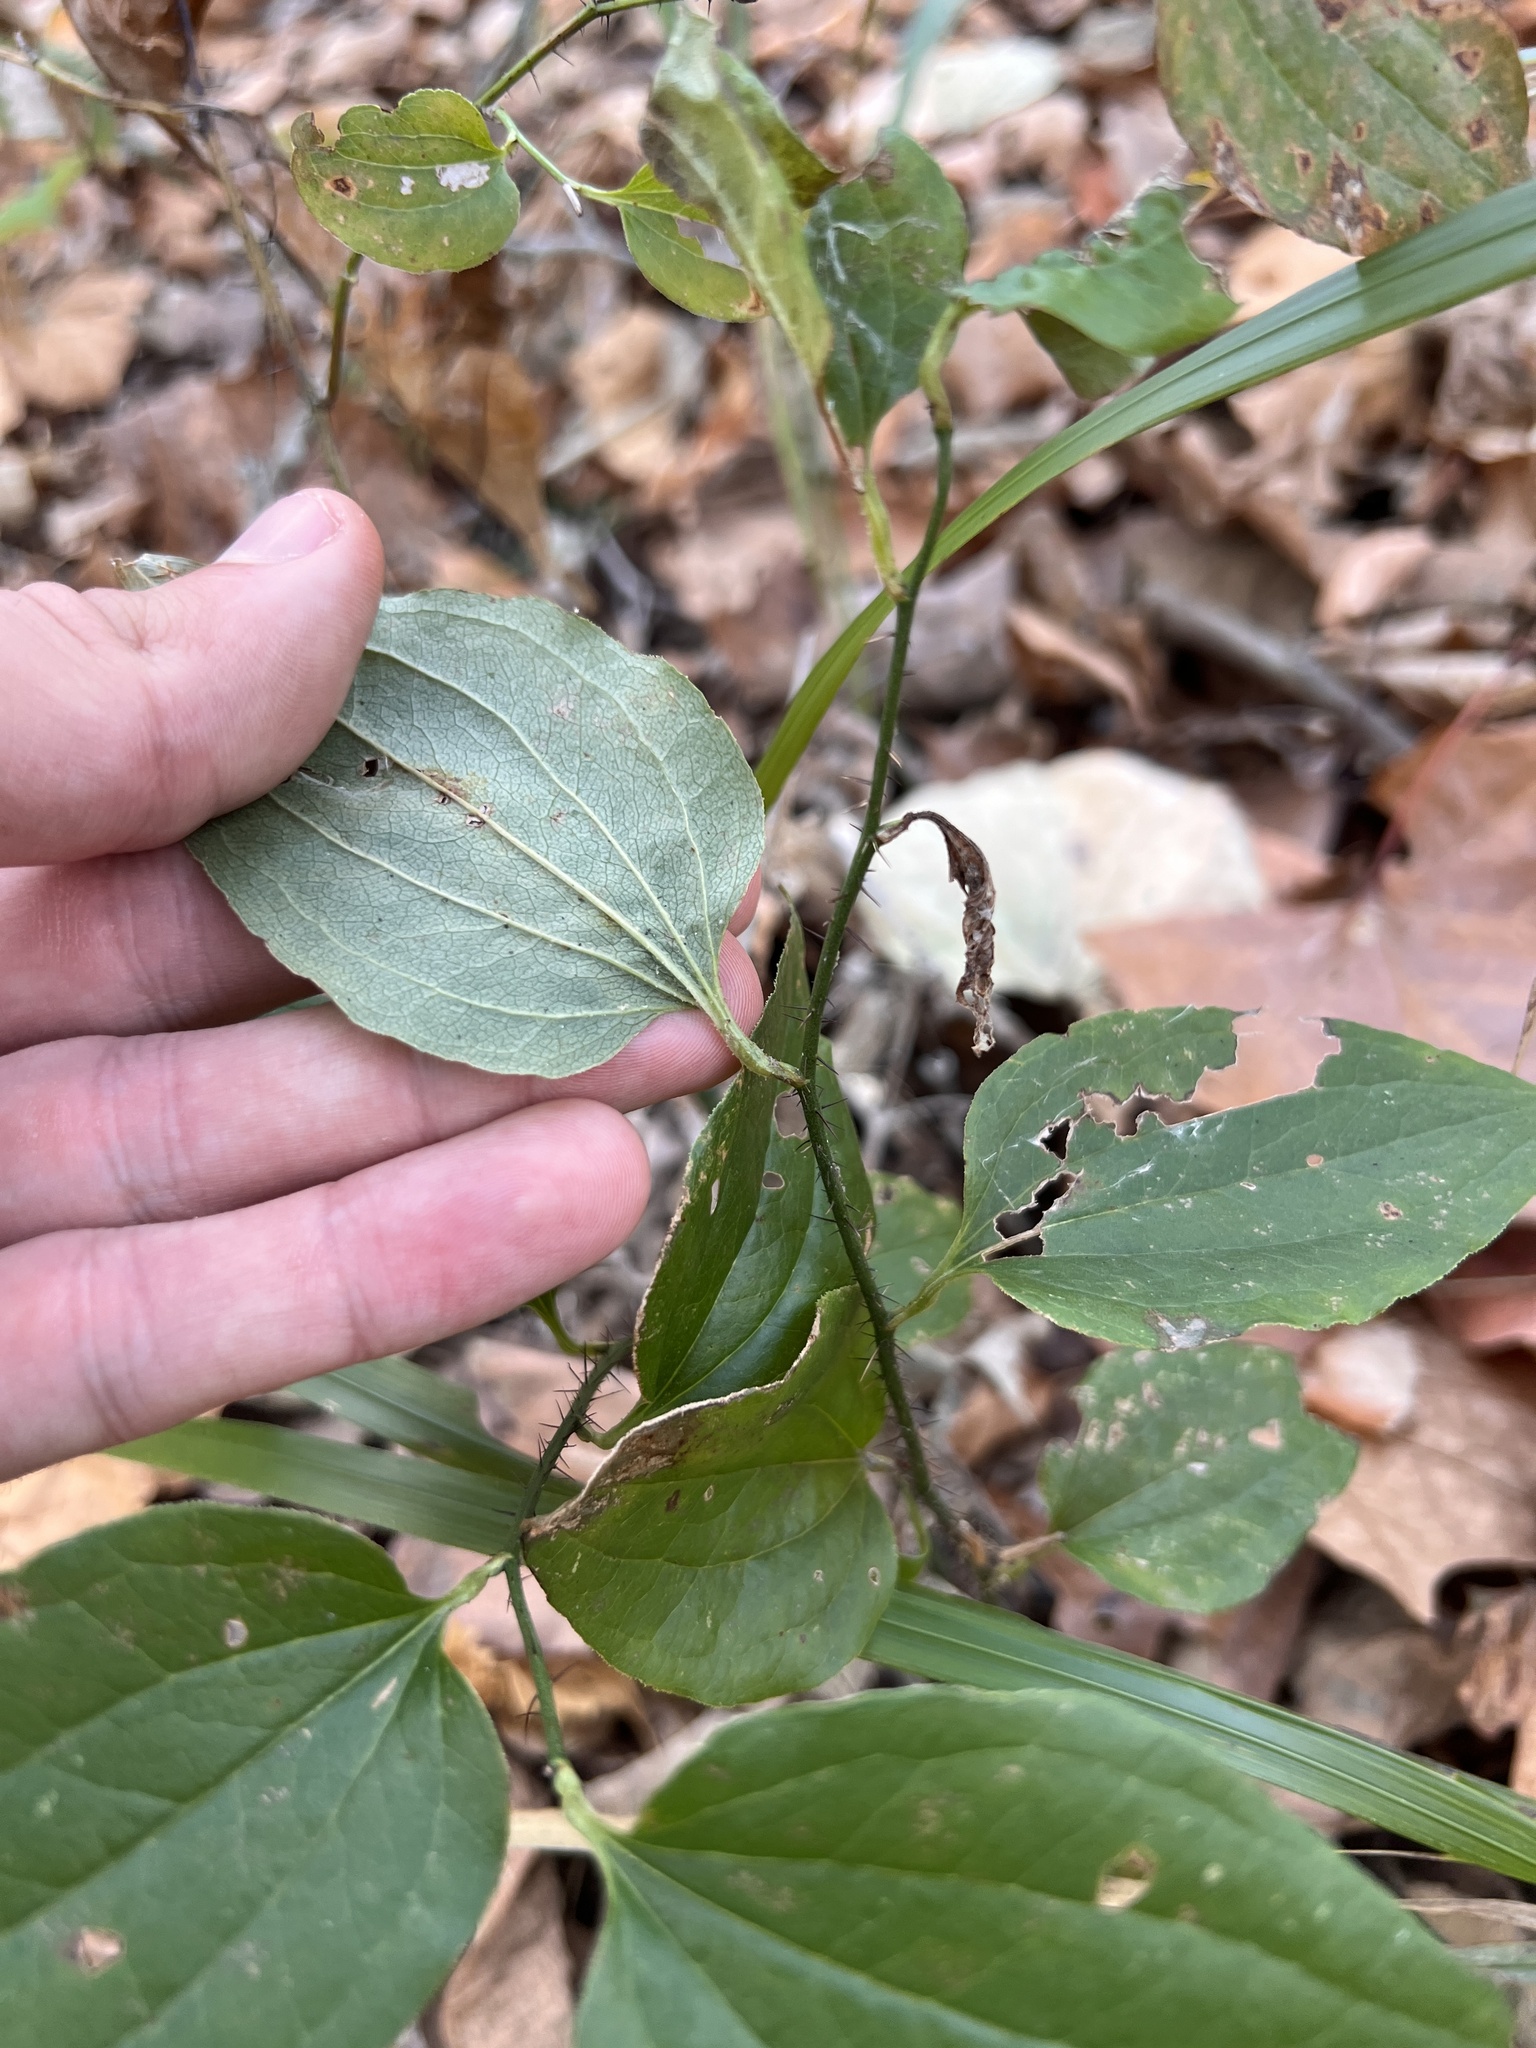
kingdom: Plantae
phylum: Tracheophyta
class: Liliopsida
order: Liliales
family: Smilacaceae
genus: Smilax
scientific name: Smilax glauca
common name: Cat greenbrier
